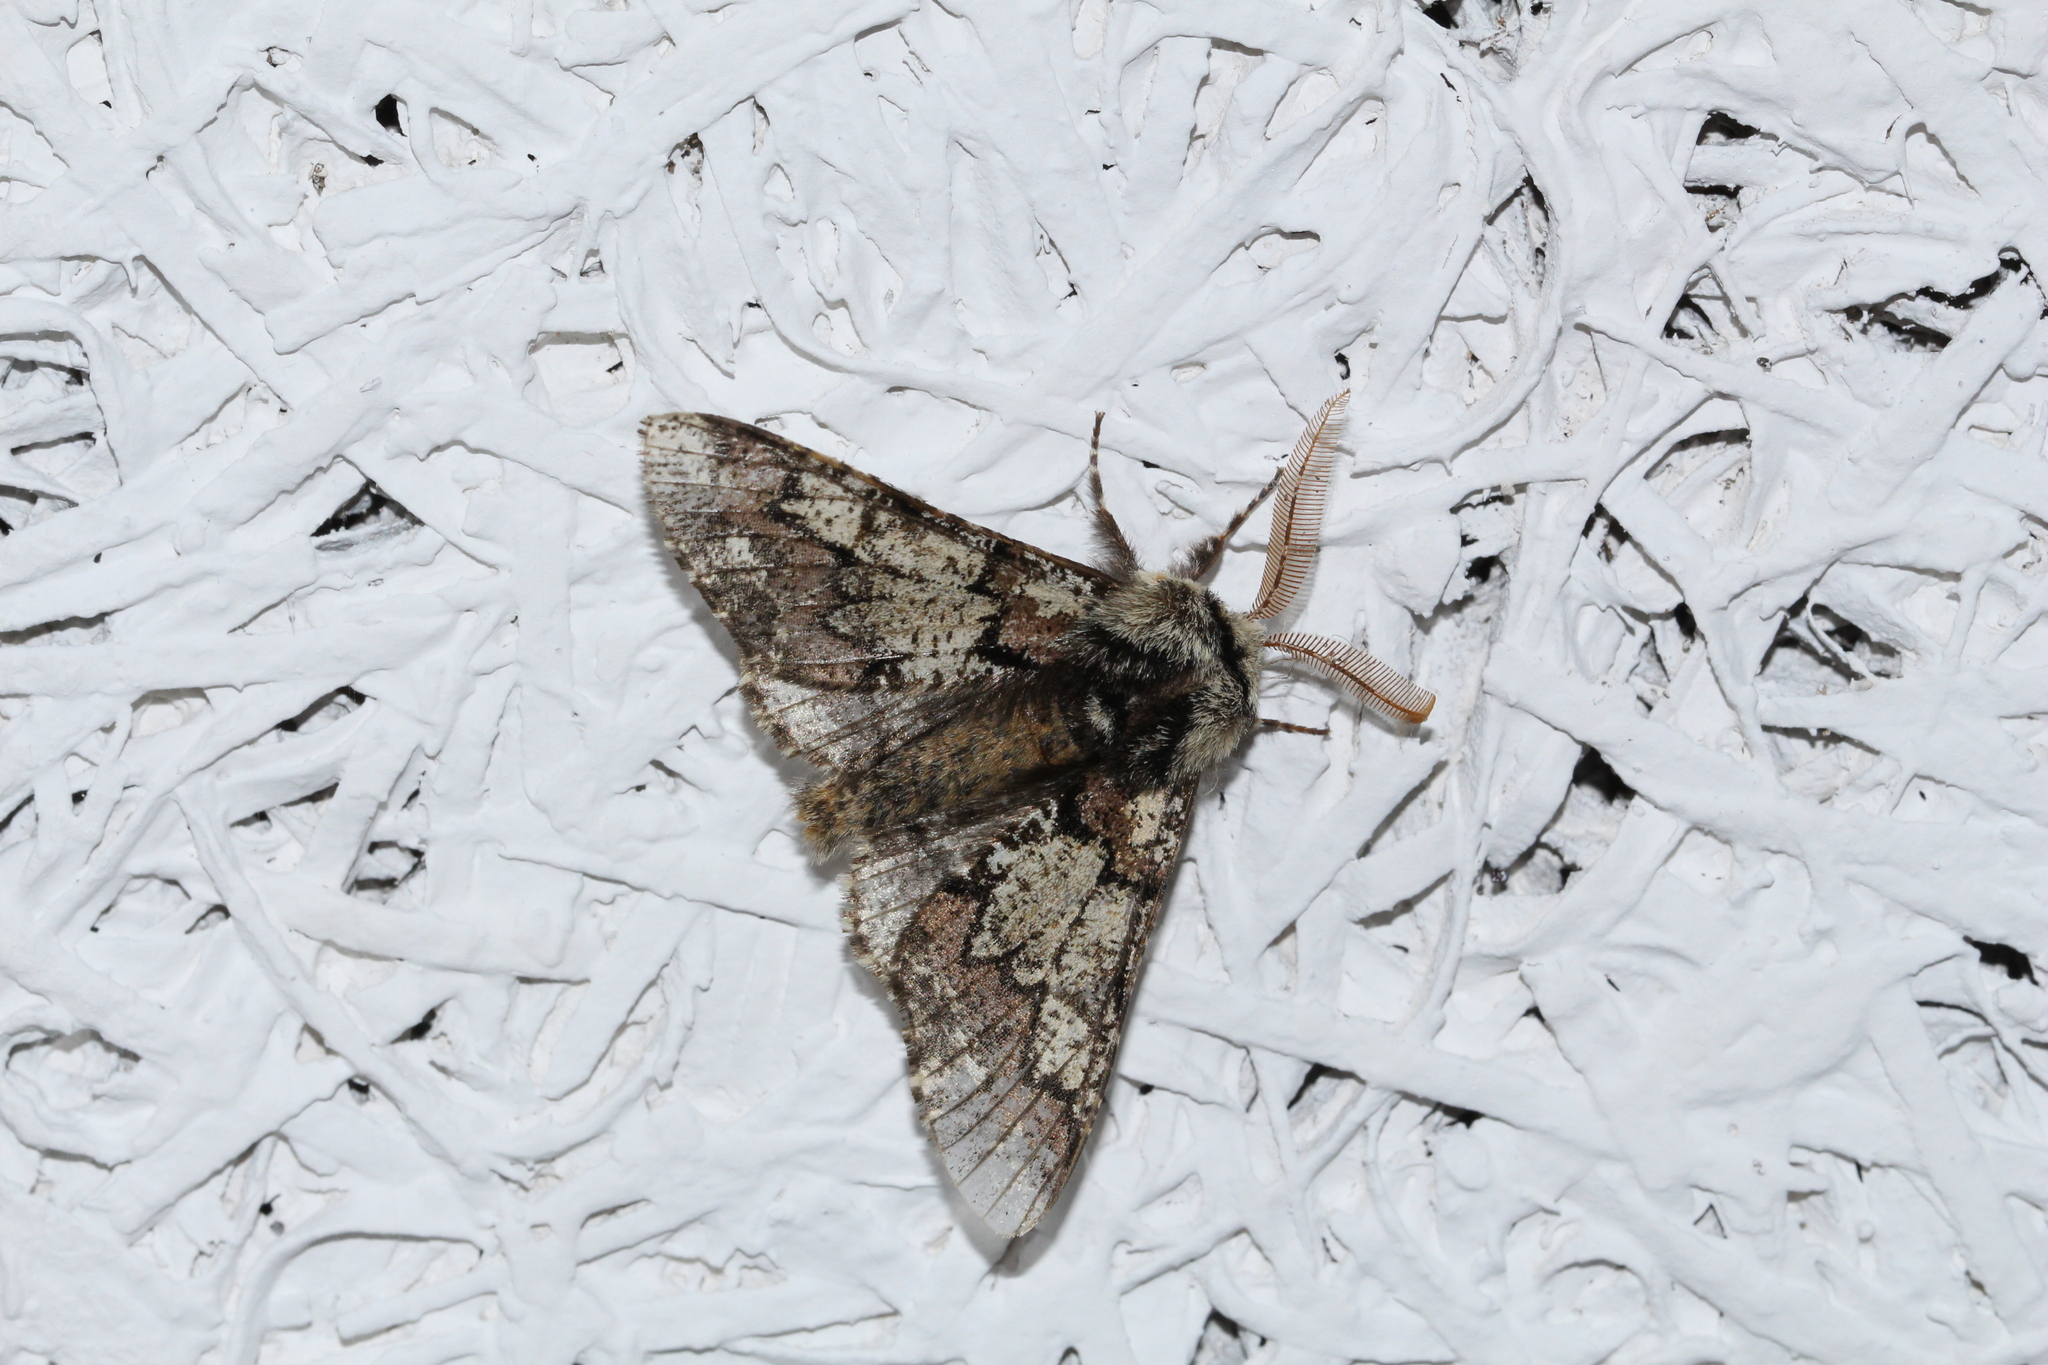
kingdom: Animalia
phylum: Arthropoda
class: Insecta
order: Lepidoptera
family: Geometridae
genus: Biston
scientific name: Biston strataria
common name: Oak beauty
